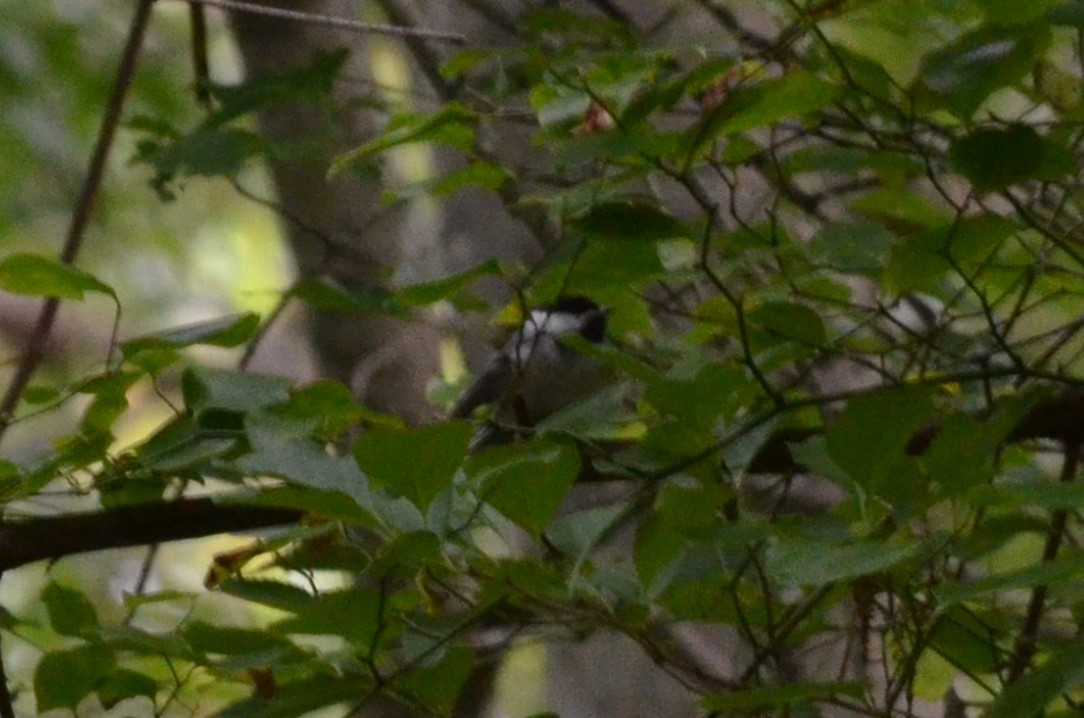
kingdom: Animalia
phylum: Chordata
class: Aves
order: Passeriformes
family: Paridae
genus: Poecile
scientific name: Poecile atricapillus
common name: Black-capped chickadee
